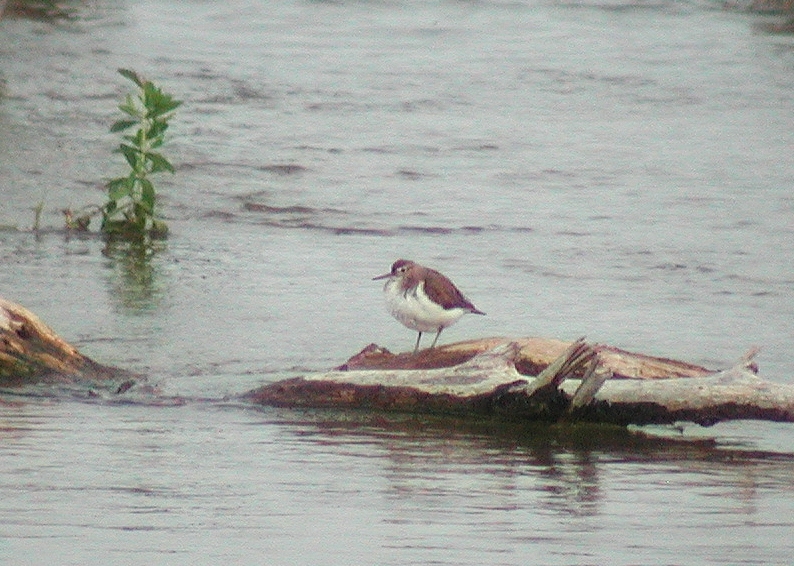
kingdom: Animalia
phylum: Chordata
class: Aves
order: Charadriiformes
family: Scolopacidae
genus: Actitis
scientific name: Actitis hypoleucos
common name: Common sandpiper
